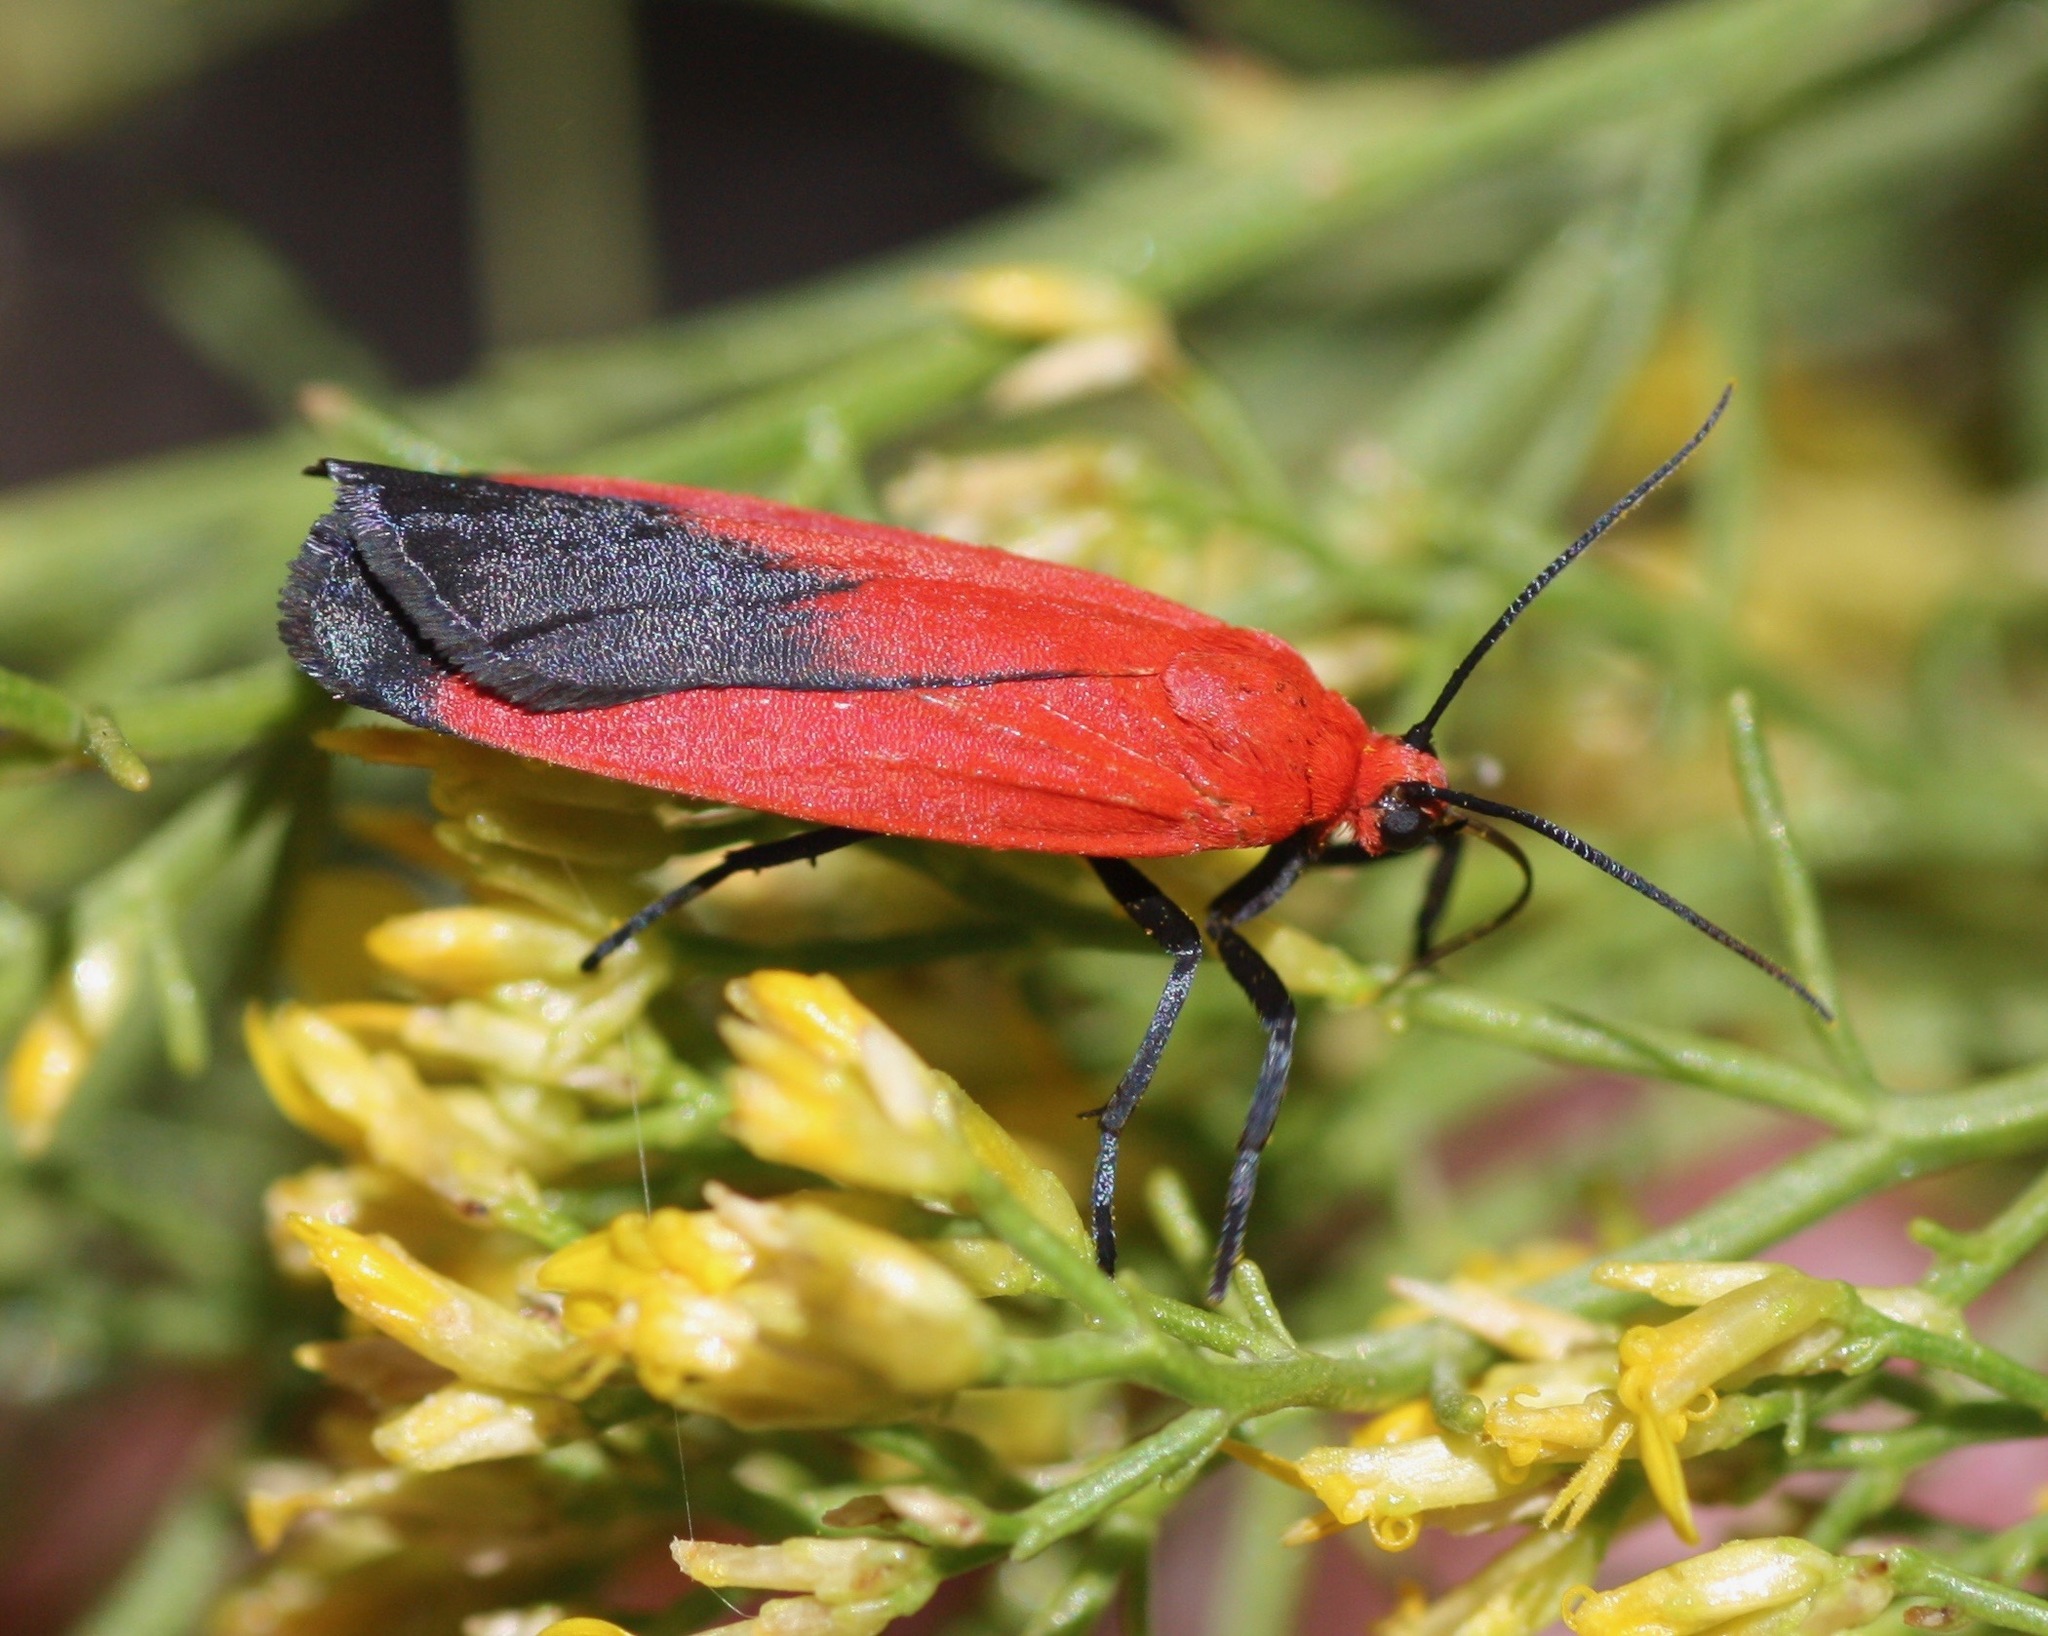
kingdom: Animalia
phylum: Arthropoda
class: Insecta
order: Lepidoptera
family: Erebidae
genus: Ptychoglene
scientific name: Ptychoglene coccinea
